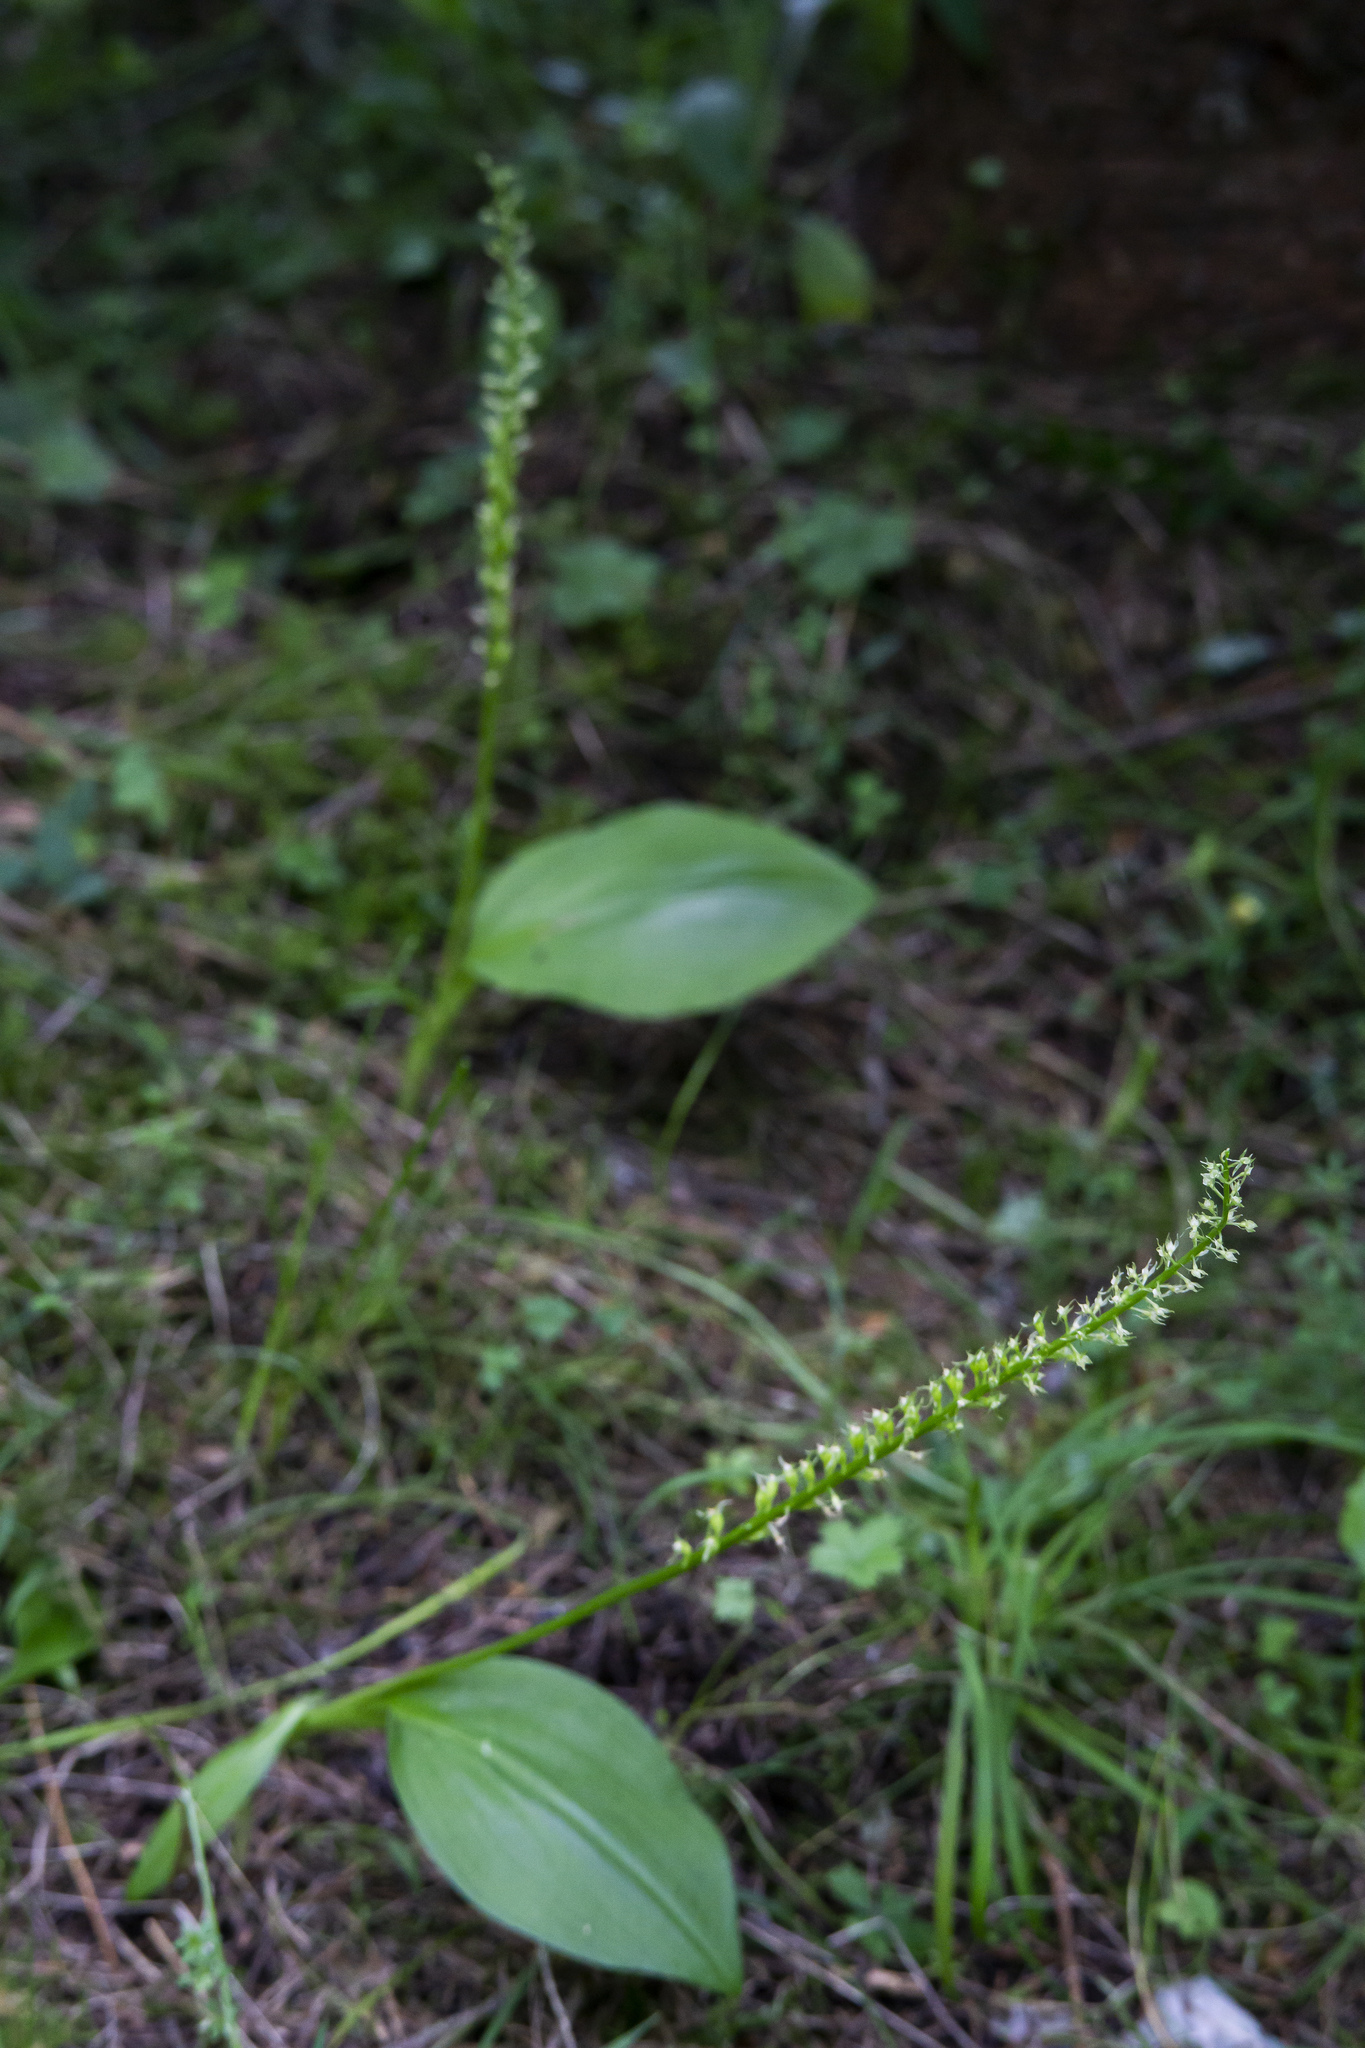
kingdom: Plantae
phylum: Tracheophyta
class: Liliopsida
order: Asparagales
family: Orchidaceae
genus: Malaxis
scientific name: Malaxis monophyllos
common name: White adder's-mouth
